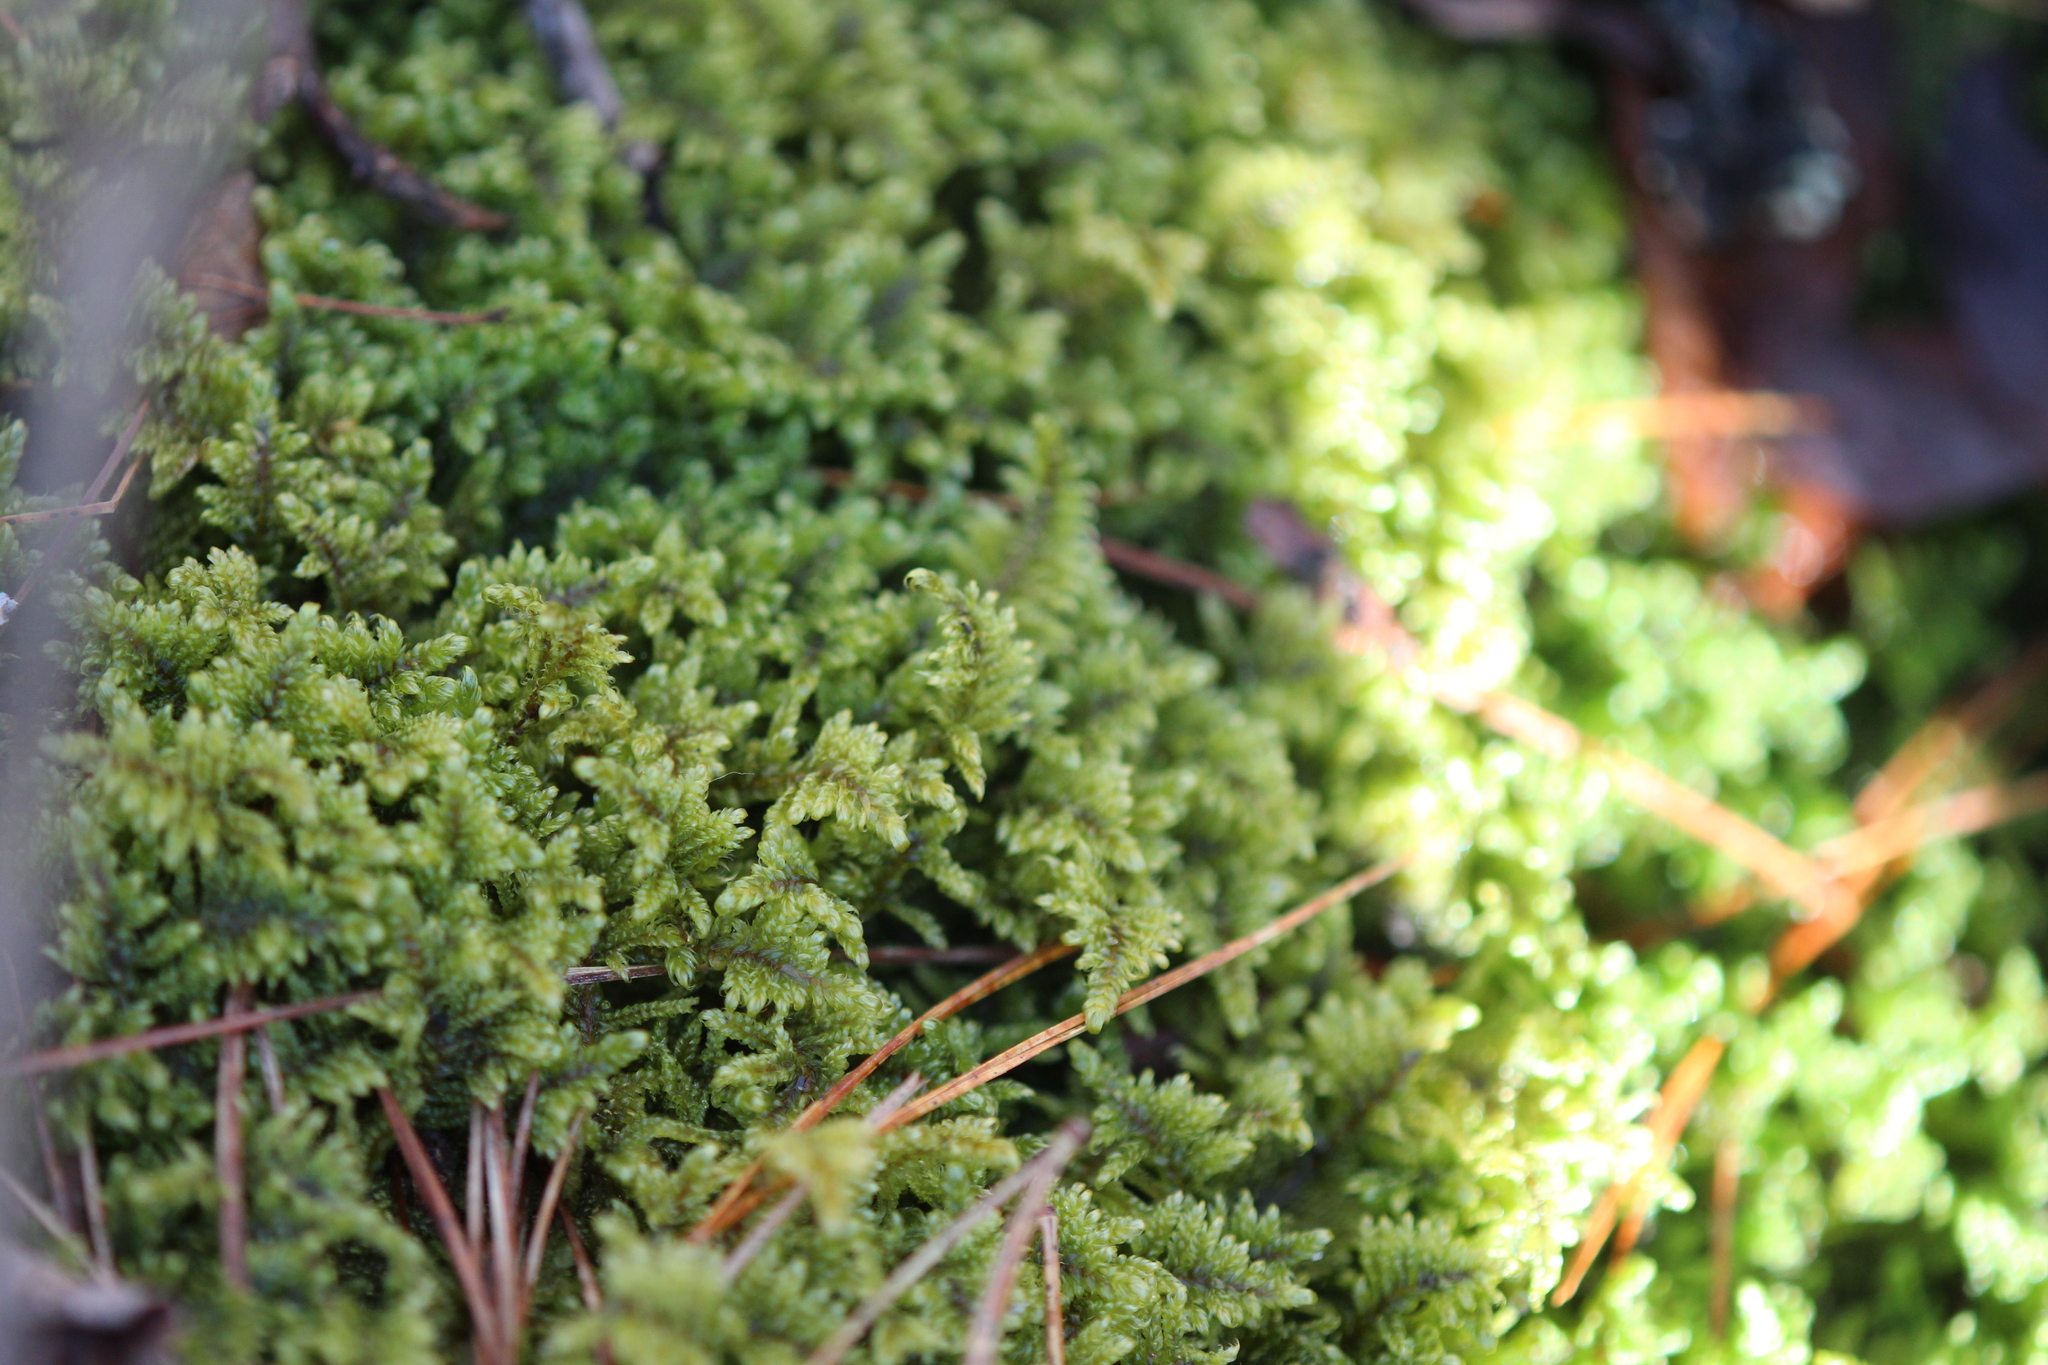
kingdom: Plantae
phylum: Bryophyta
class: Bryopsida
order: Hypnales
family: Callicladiaceae
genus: Callicladium
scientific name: Callicladium imponens
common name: Brocade moss
